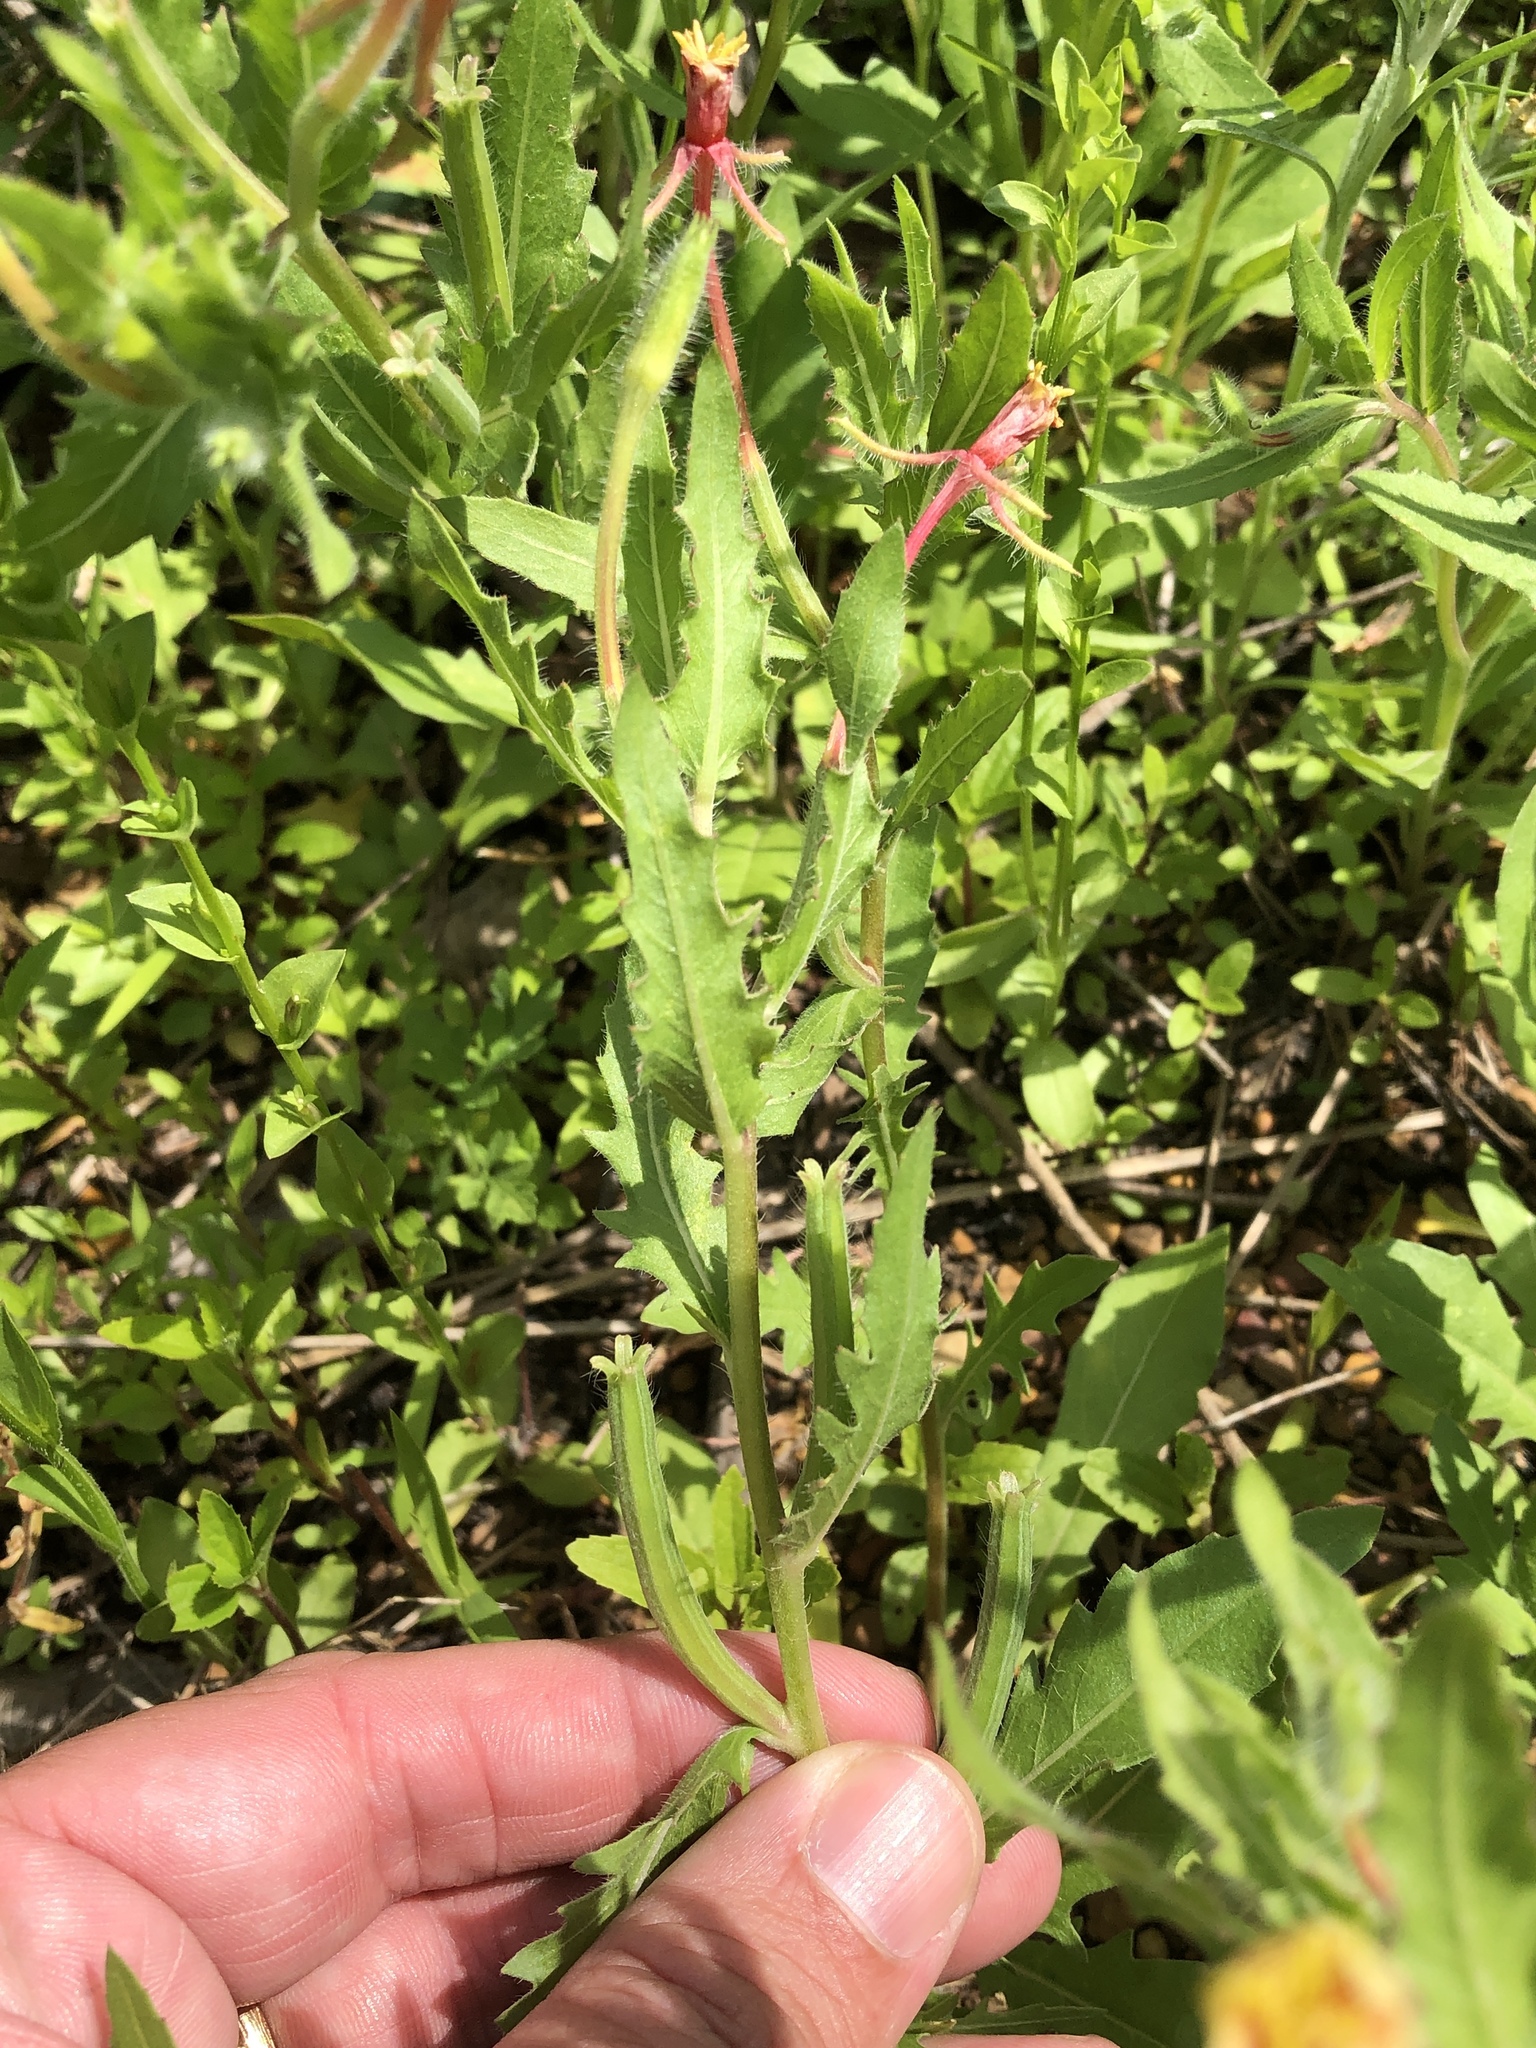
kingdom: Plantae
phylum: Tracheophyta
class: Magnoliopsida
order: Myrtales
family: Onagraceae
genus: Oenothera
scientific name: Oenothera laciniata
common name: Cut-leaved evening-primrose
